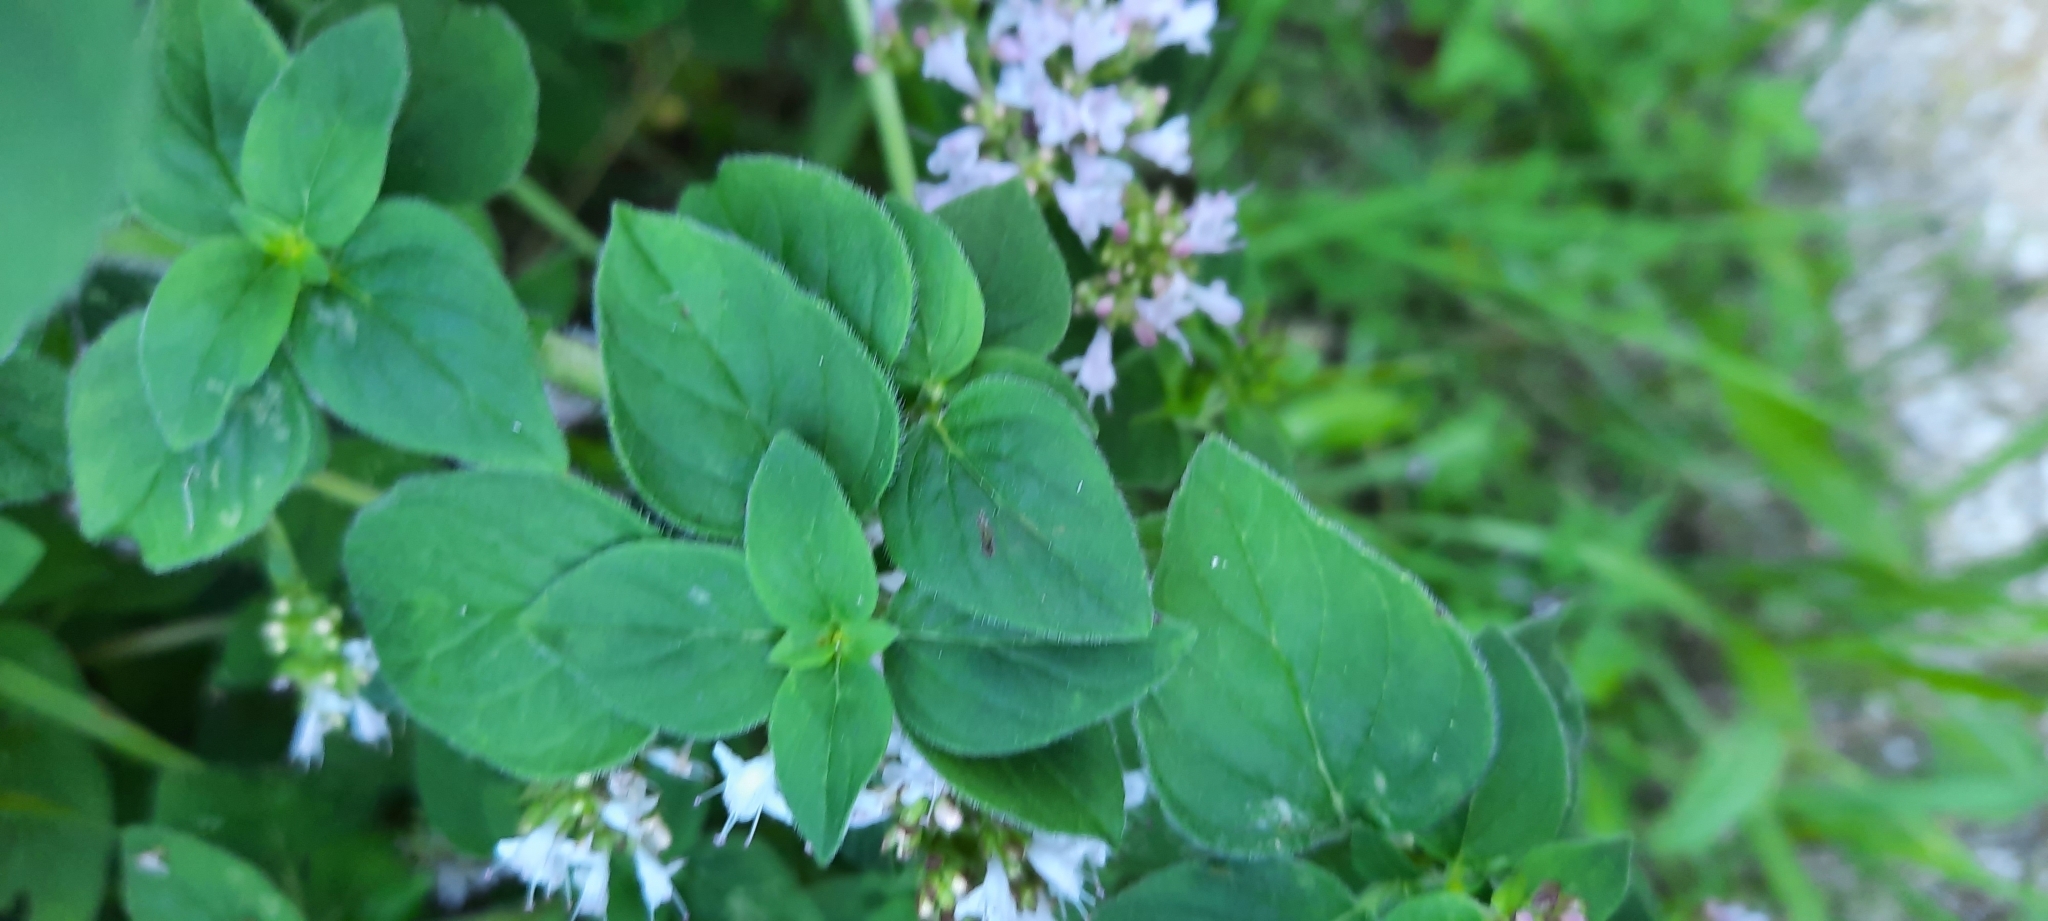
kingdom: Plantae
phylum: Tracheophyta
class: Magnoliopsida
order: Lamiales
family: Lamiaceae
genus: Origanum
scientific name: Origanum vulgare
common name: Wild marjoram
